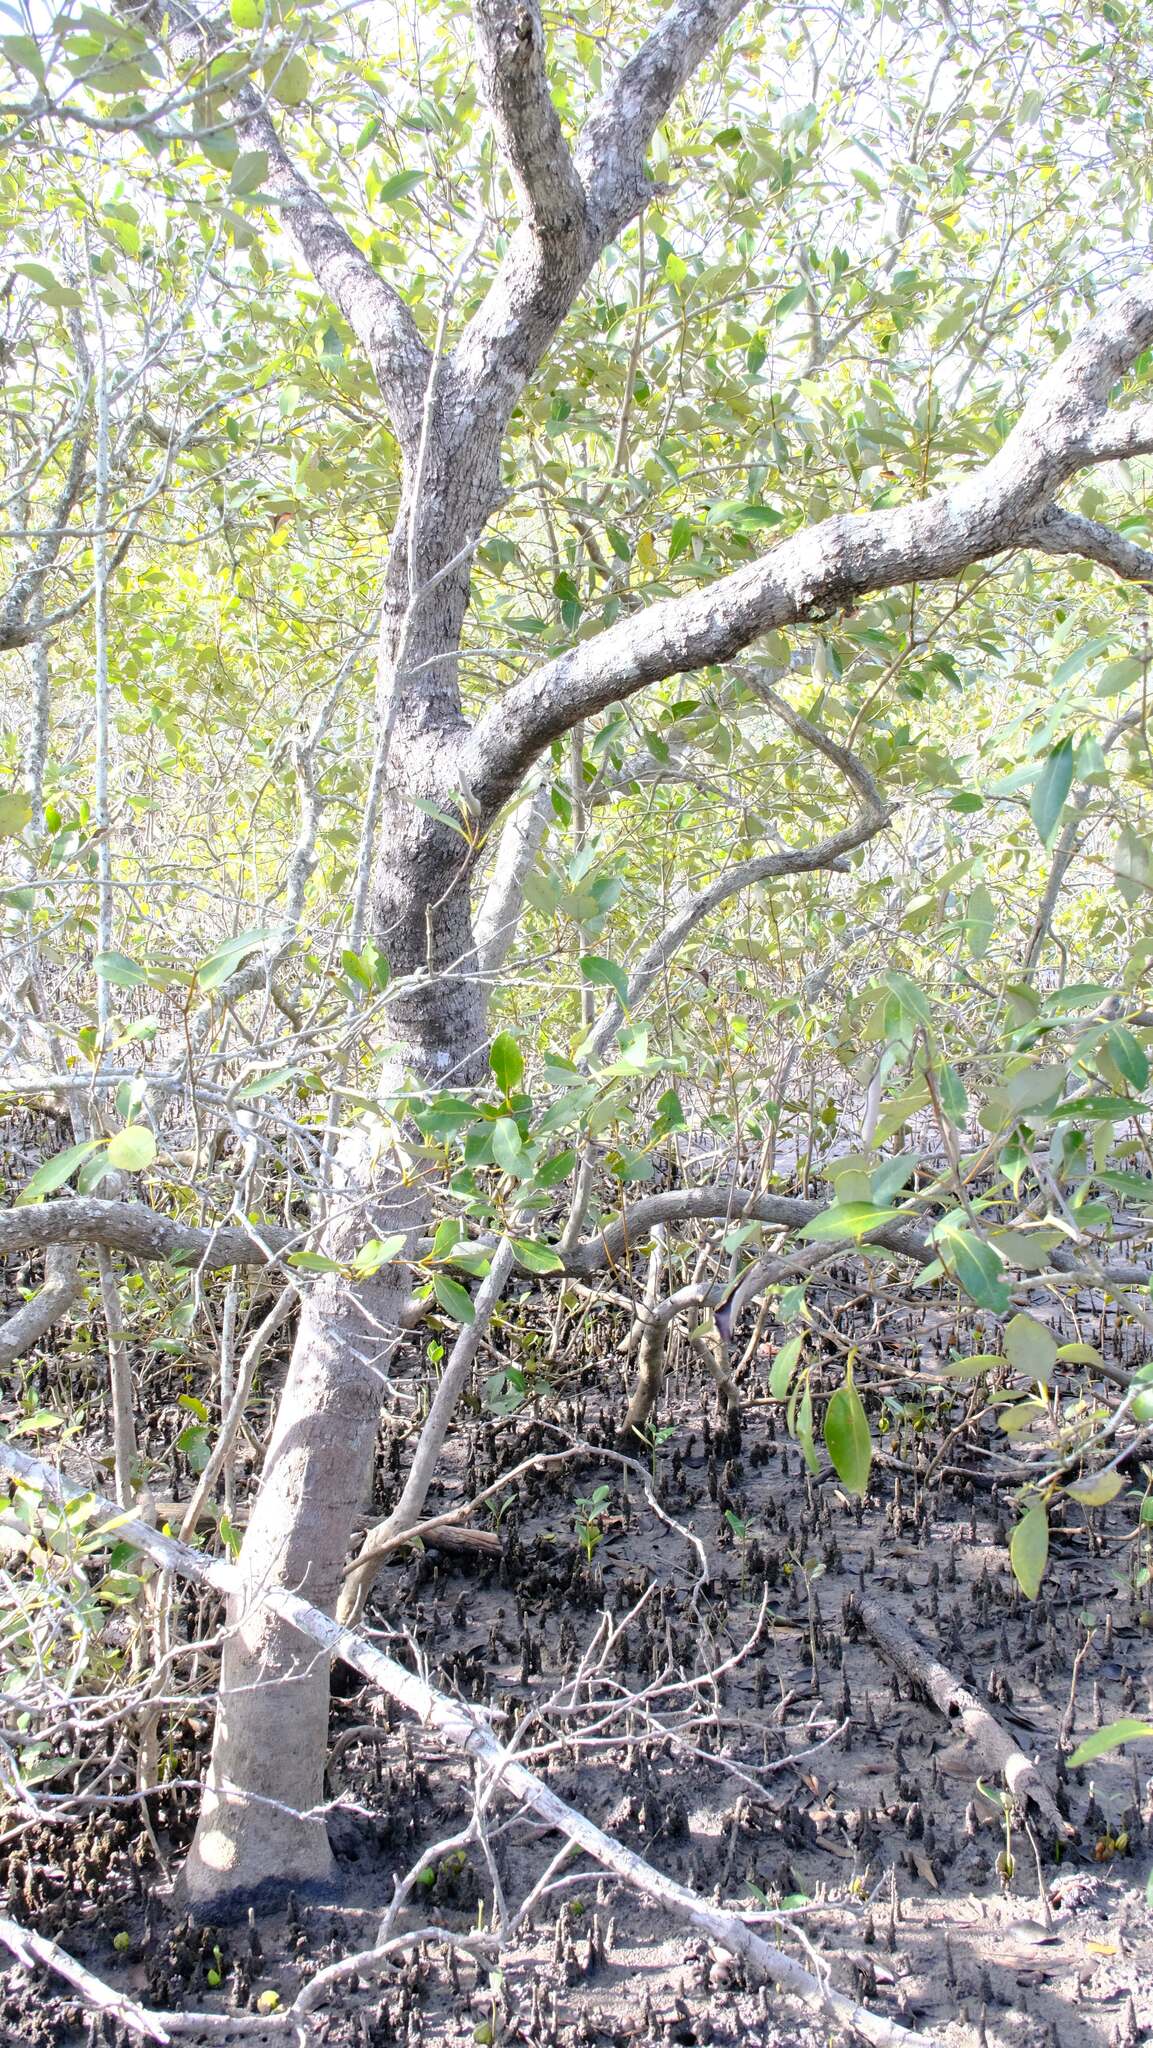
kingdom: Plantae
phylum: Tracheophyta
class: Magnoliopsida
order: Lamiales
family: Acanthaceae
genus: Avicennia
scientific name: Avicennia marina
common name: Gray mangrove
